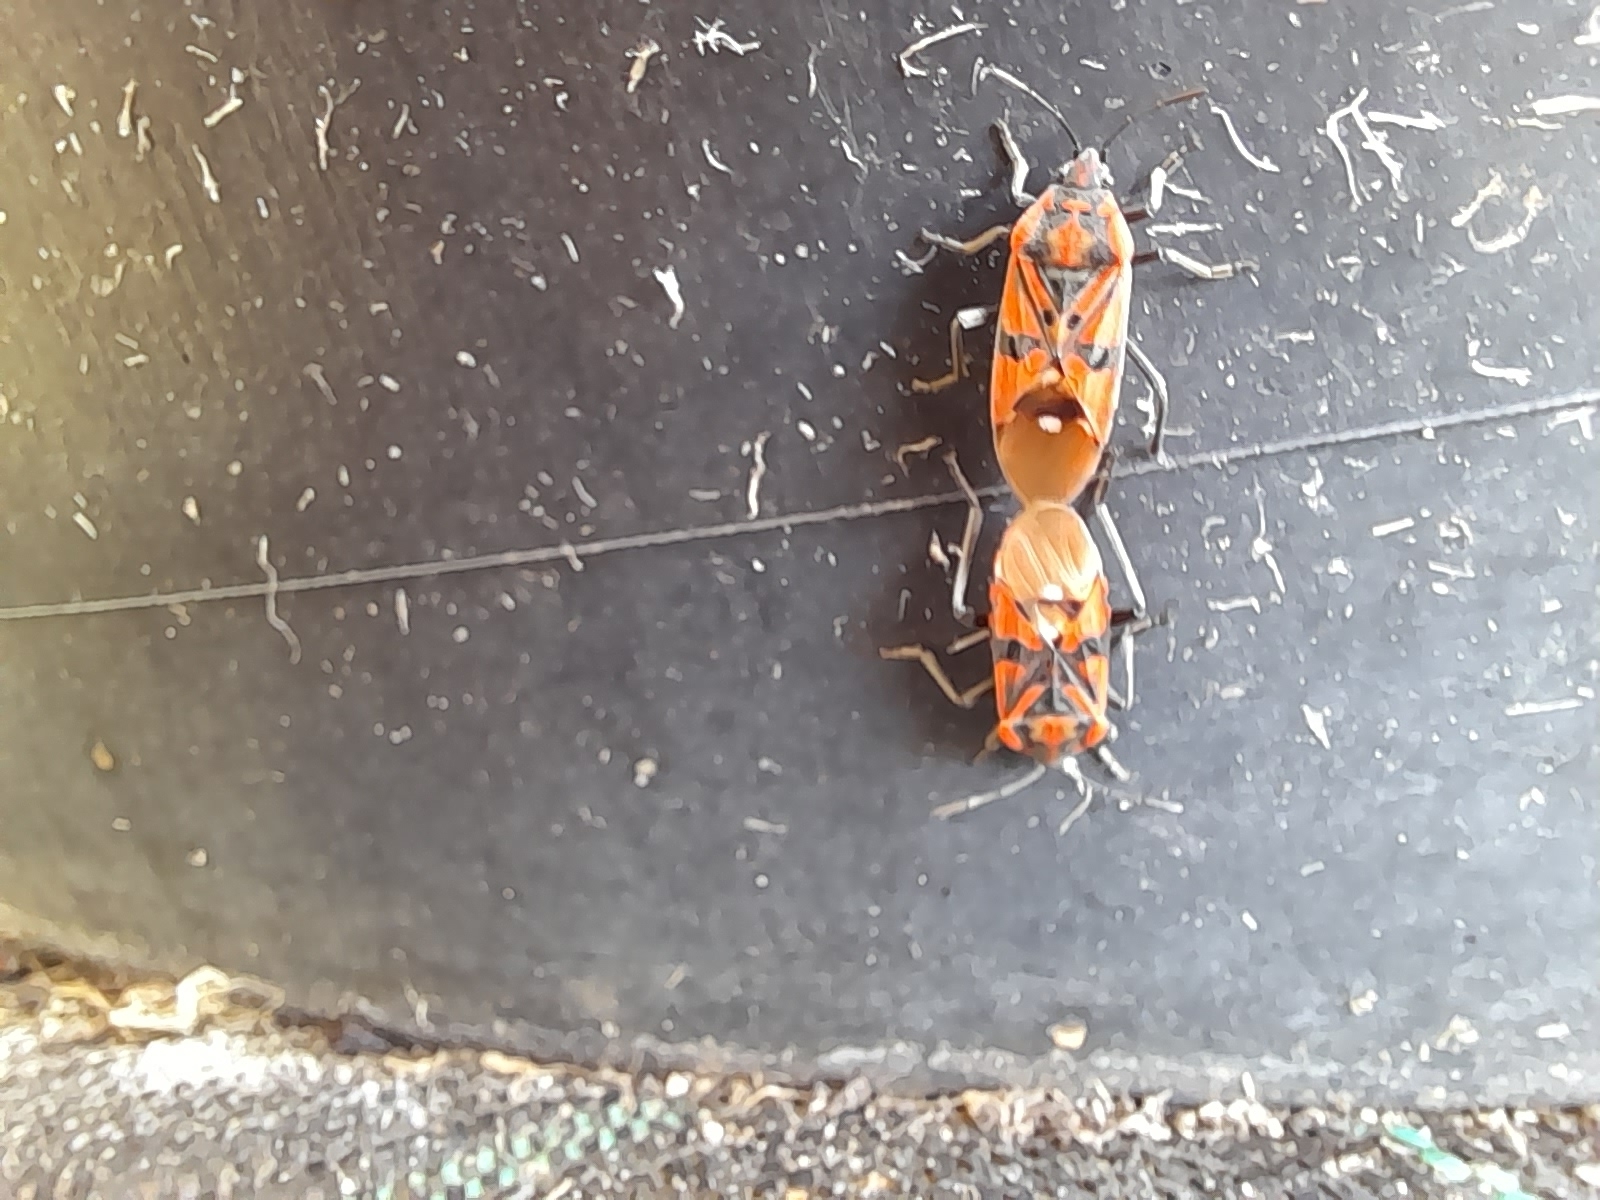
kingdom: Animalia
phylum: Arthropoda
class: Insecta
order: Hemiptera
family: Lygaeidae
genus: Spilostethus
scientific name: Spilostethus pandurus
